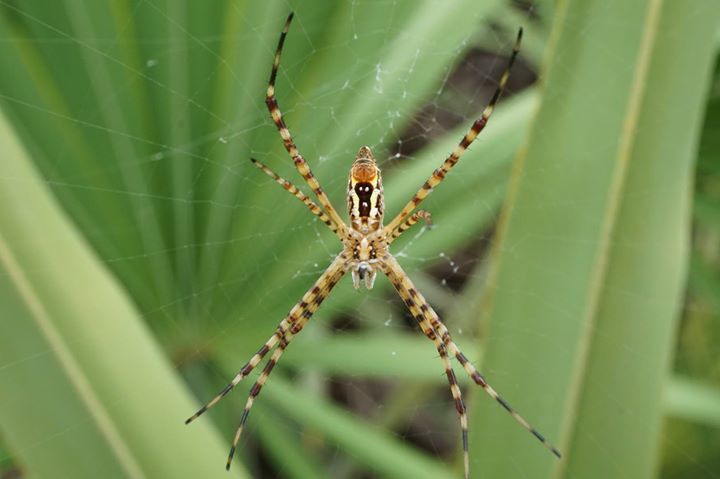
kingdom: Animalia
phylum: Arthropoda
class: Arachnida
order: Araneae
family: Araneidae
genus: Argiope
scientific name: Argiope aurantia
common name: Orb weavers
